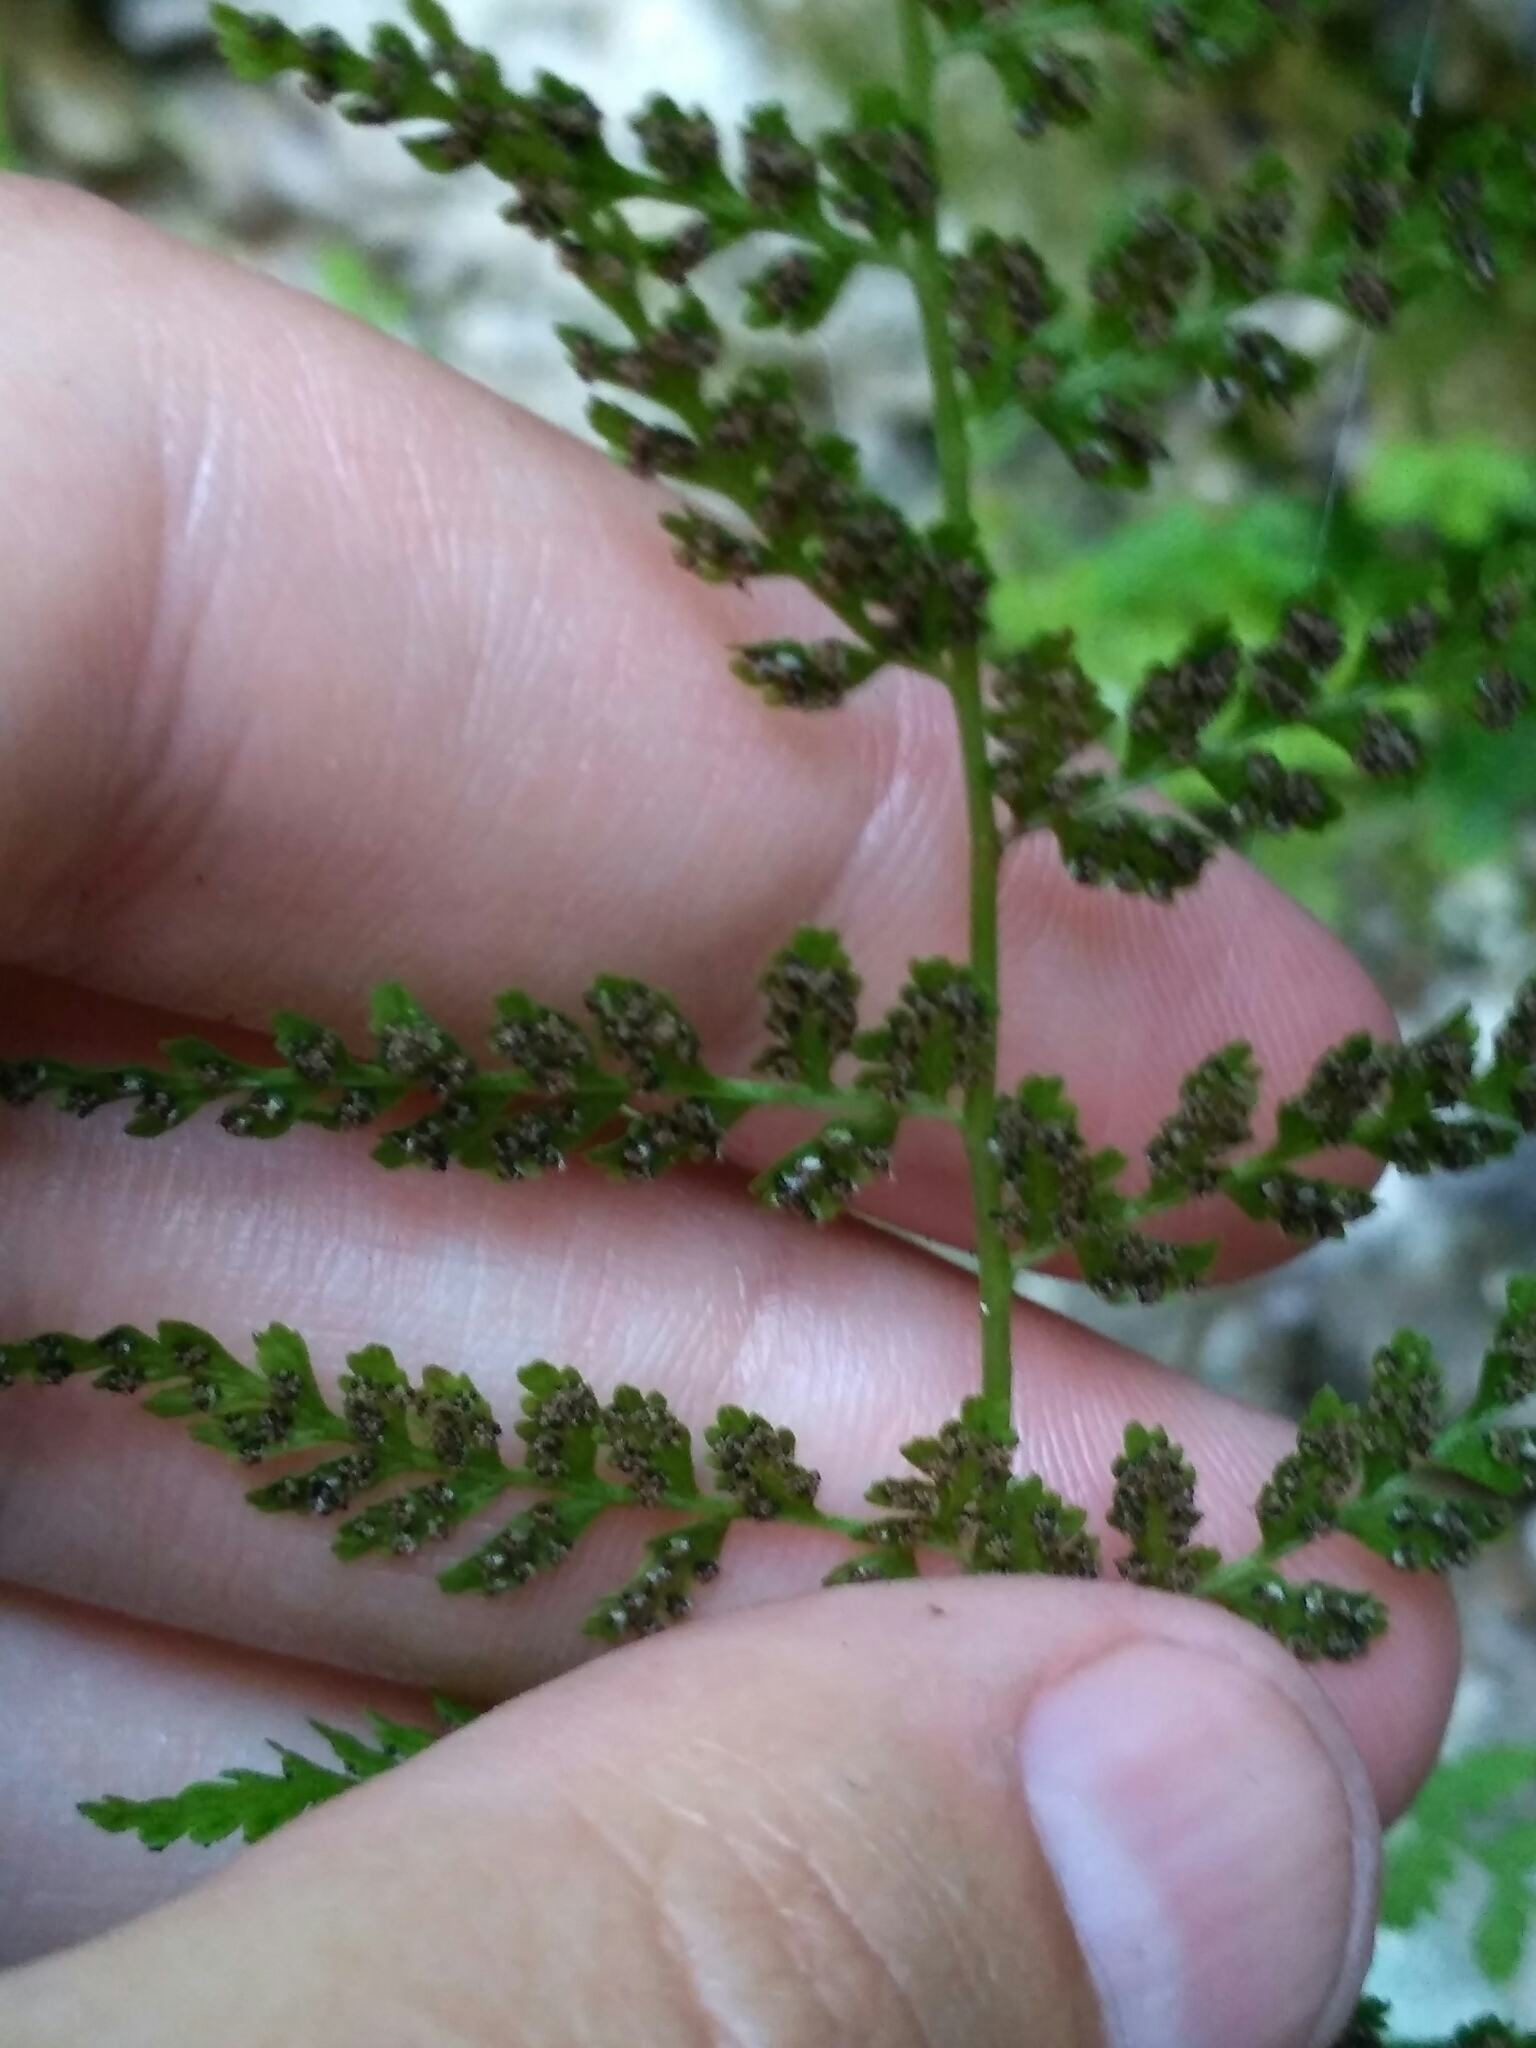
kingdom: Plantae
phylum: Tracheophyta
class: Polypodiopsida
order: Polypodiales
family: Cystopteridaceae
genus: Cystopteris
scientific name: Cystopteris fragilis
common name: Brittle bladder fern
